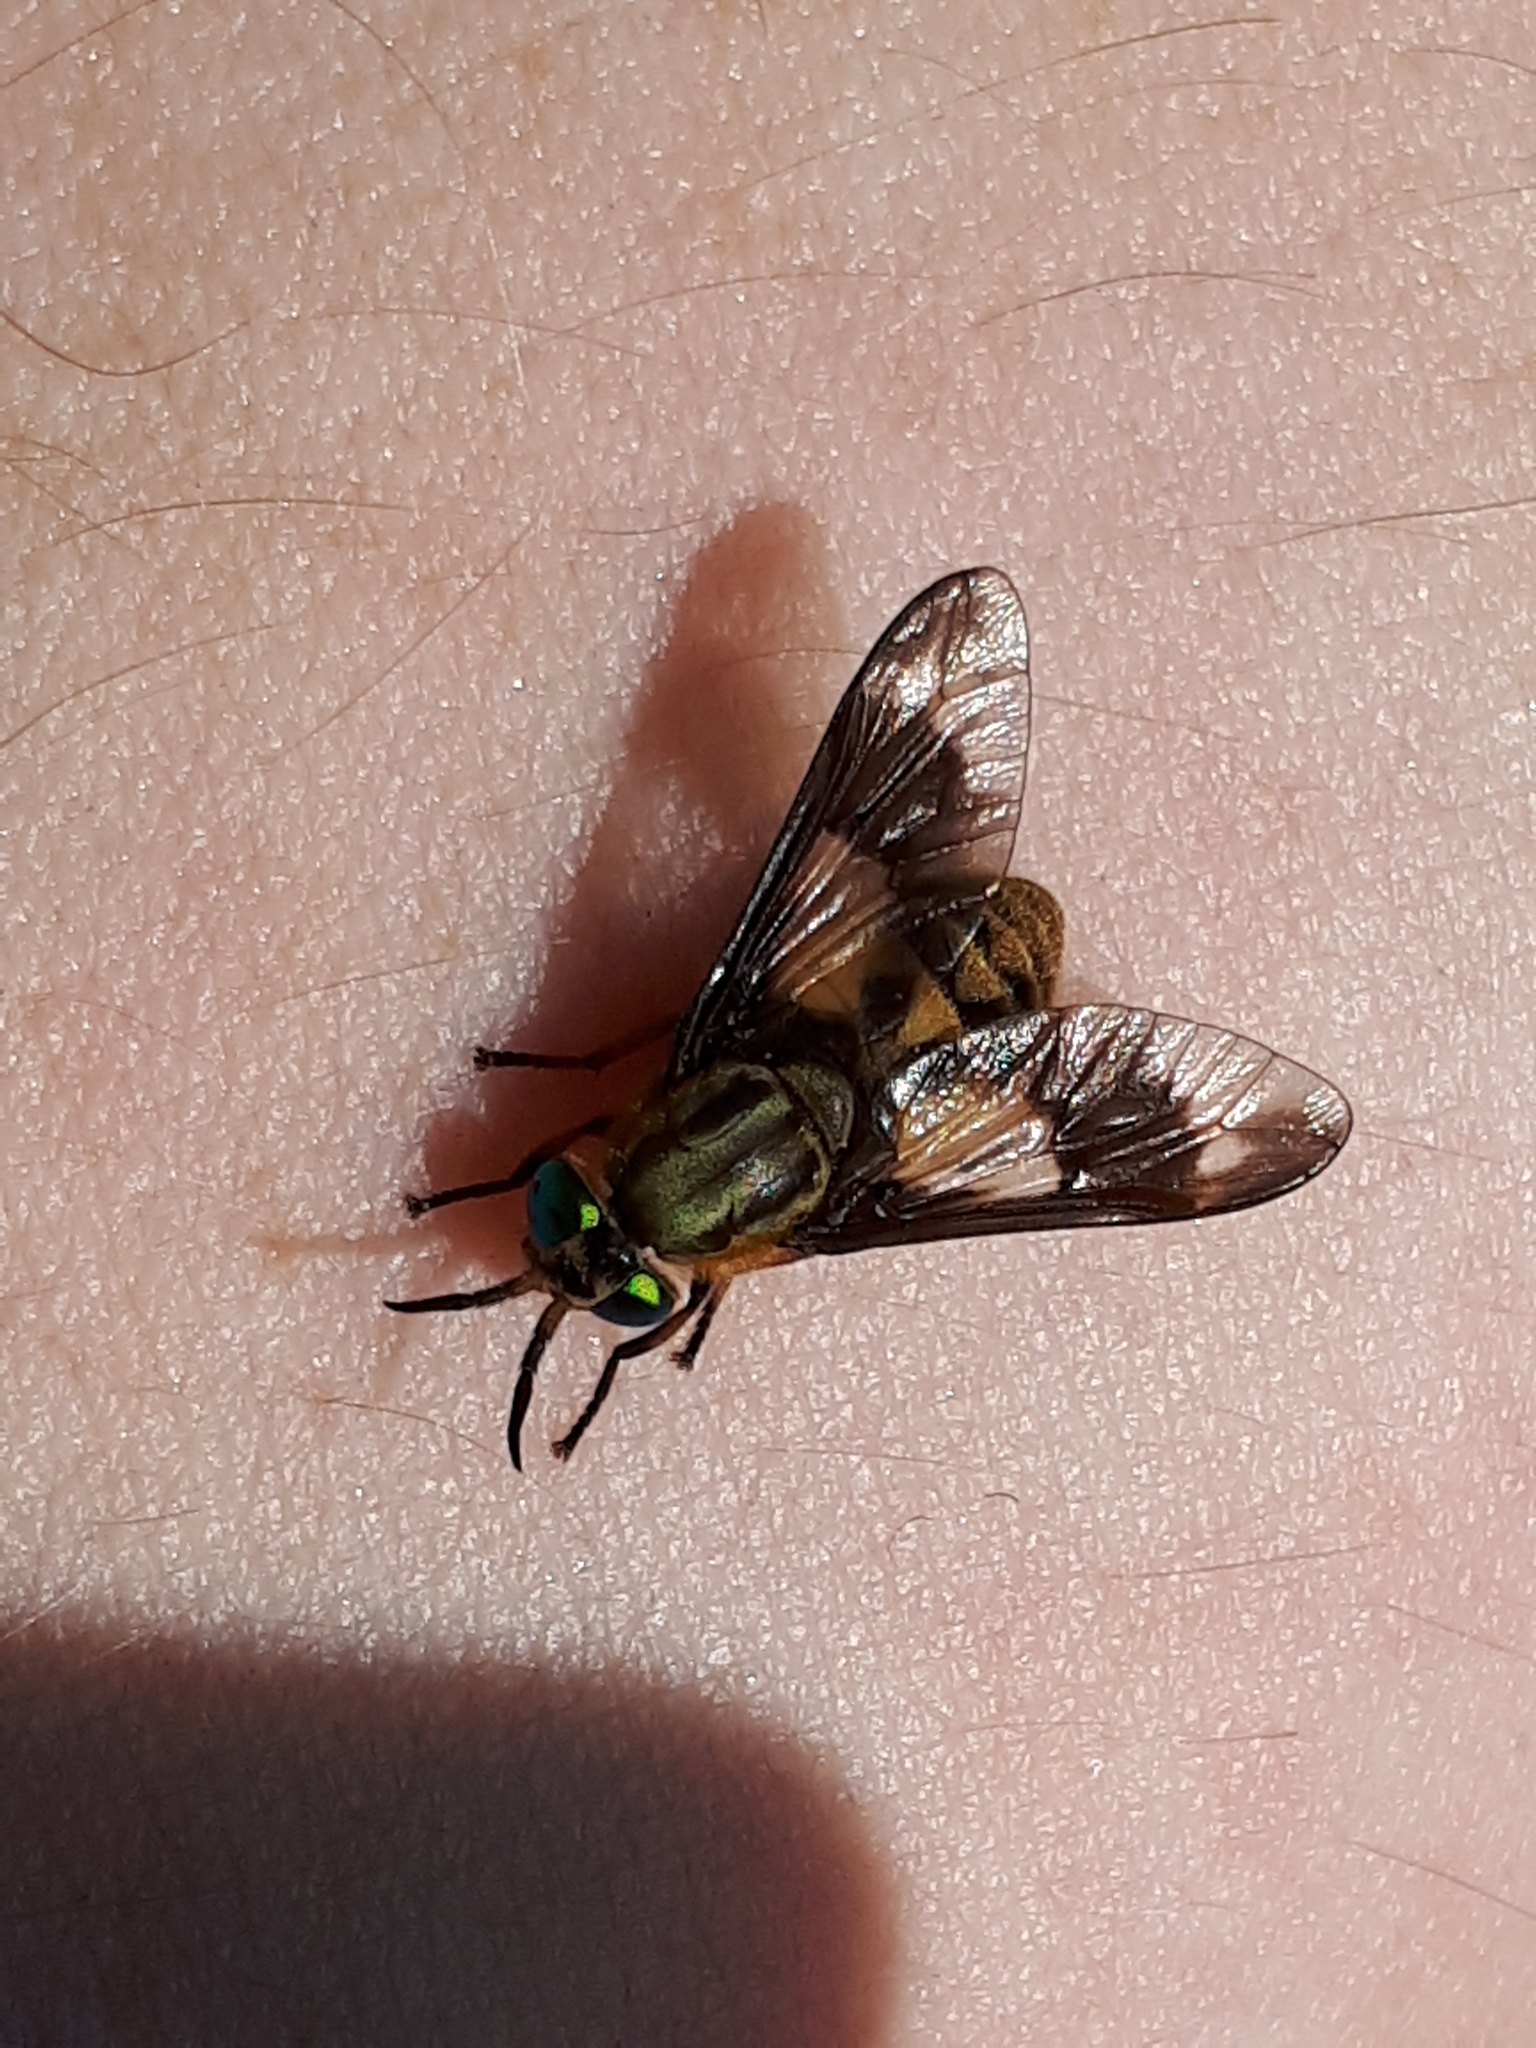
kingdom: Animalia
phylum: Arthropoda
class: Insecta
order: Diptera
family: Tabanidae
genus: Chrysops
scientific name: Chrysops relictus
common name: Twin-lobed deerfly
